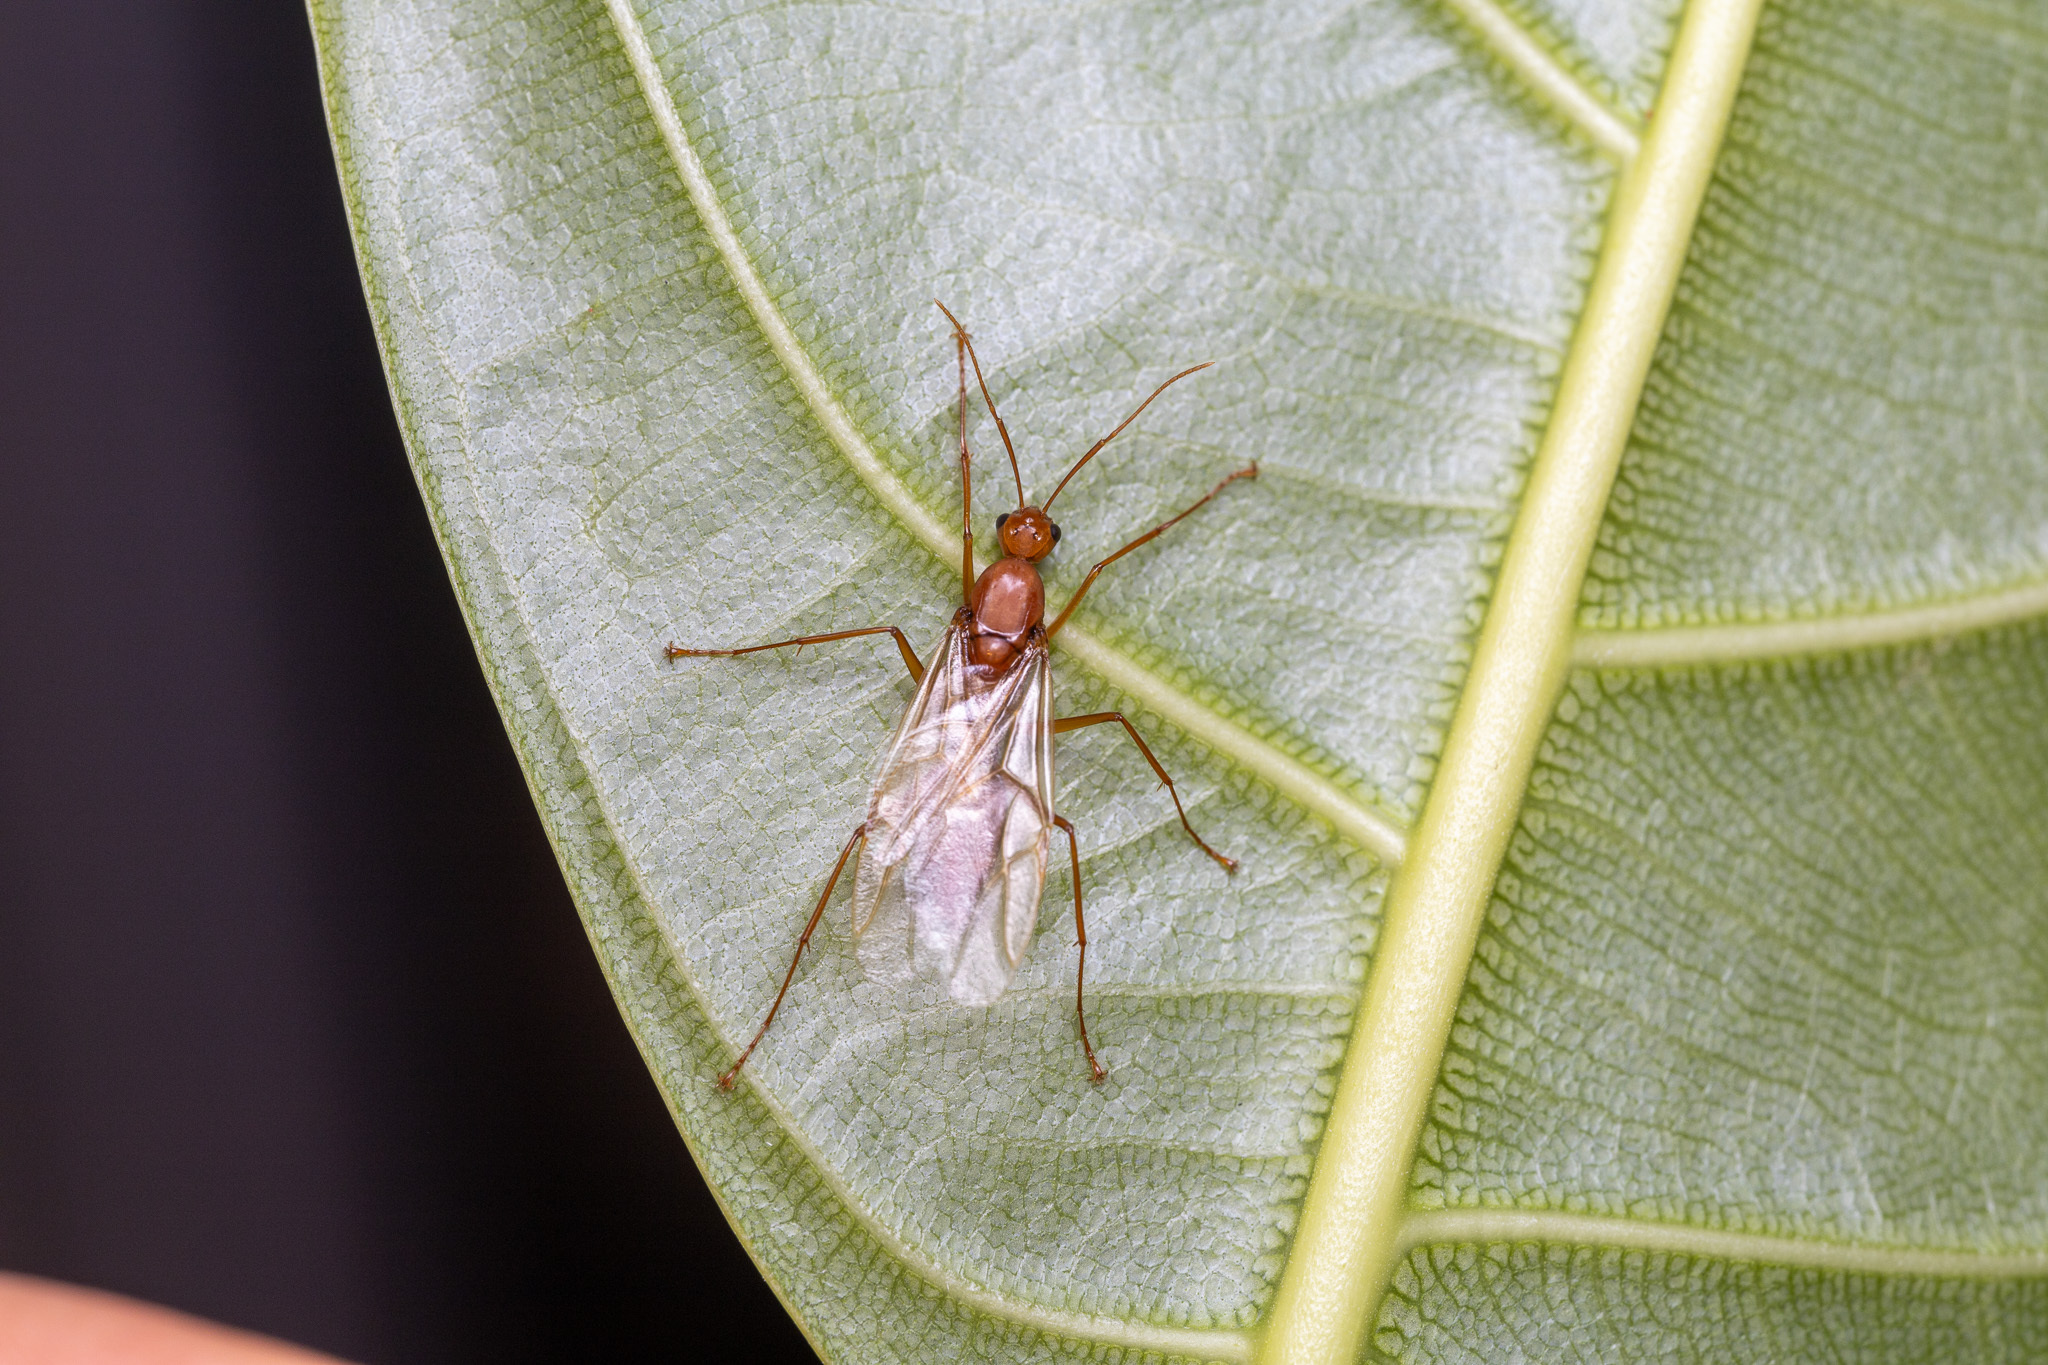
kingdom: Animalia
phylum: Arthropoda
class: Insecta
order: Hymenoptera
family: Formicidae
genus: Camponotus
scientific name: Camponotus castaneus
